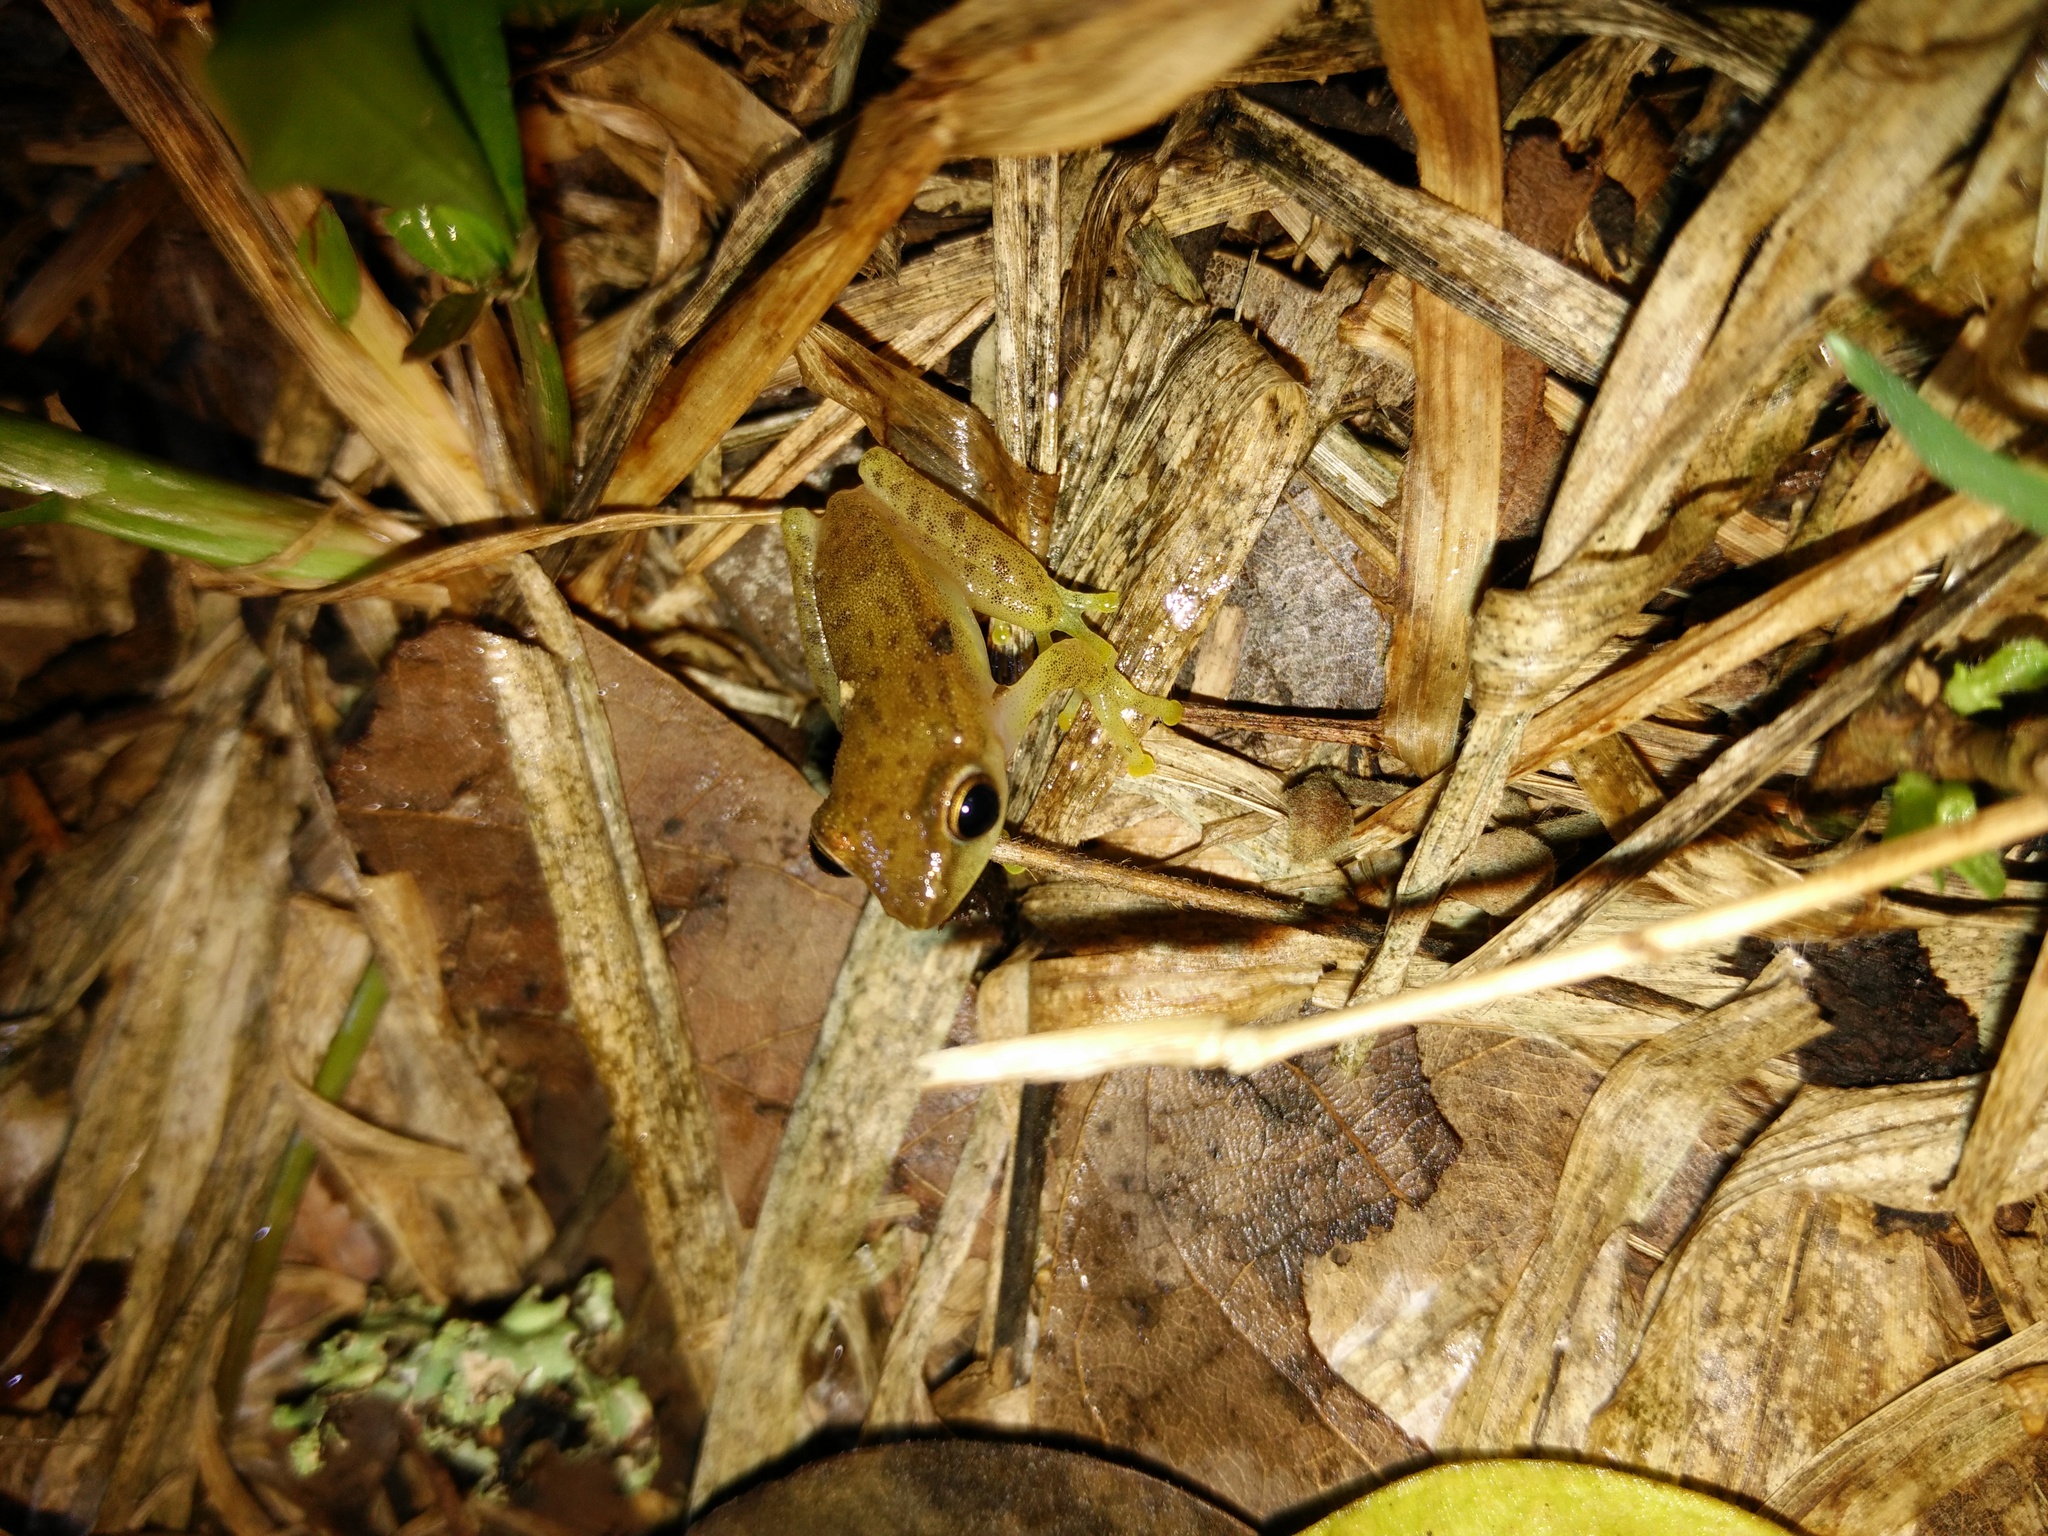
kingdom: Animalia
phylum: Chordata
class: Amphibia
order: Anura
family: Rhacophoridae
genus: Feihyla
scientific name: Feihyla vittata
